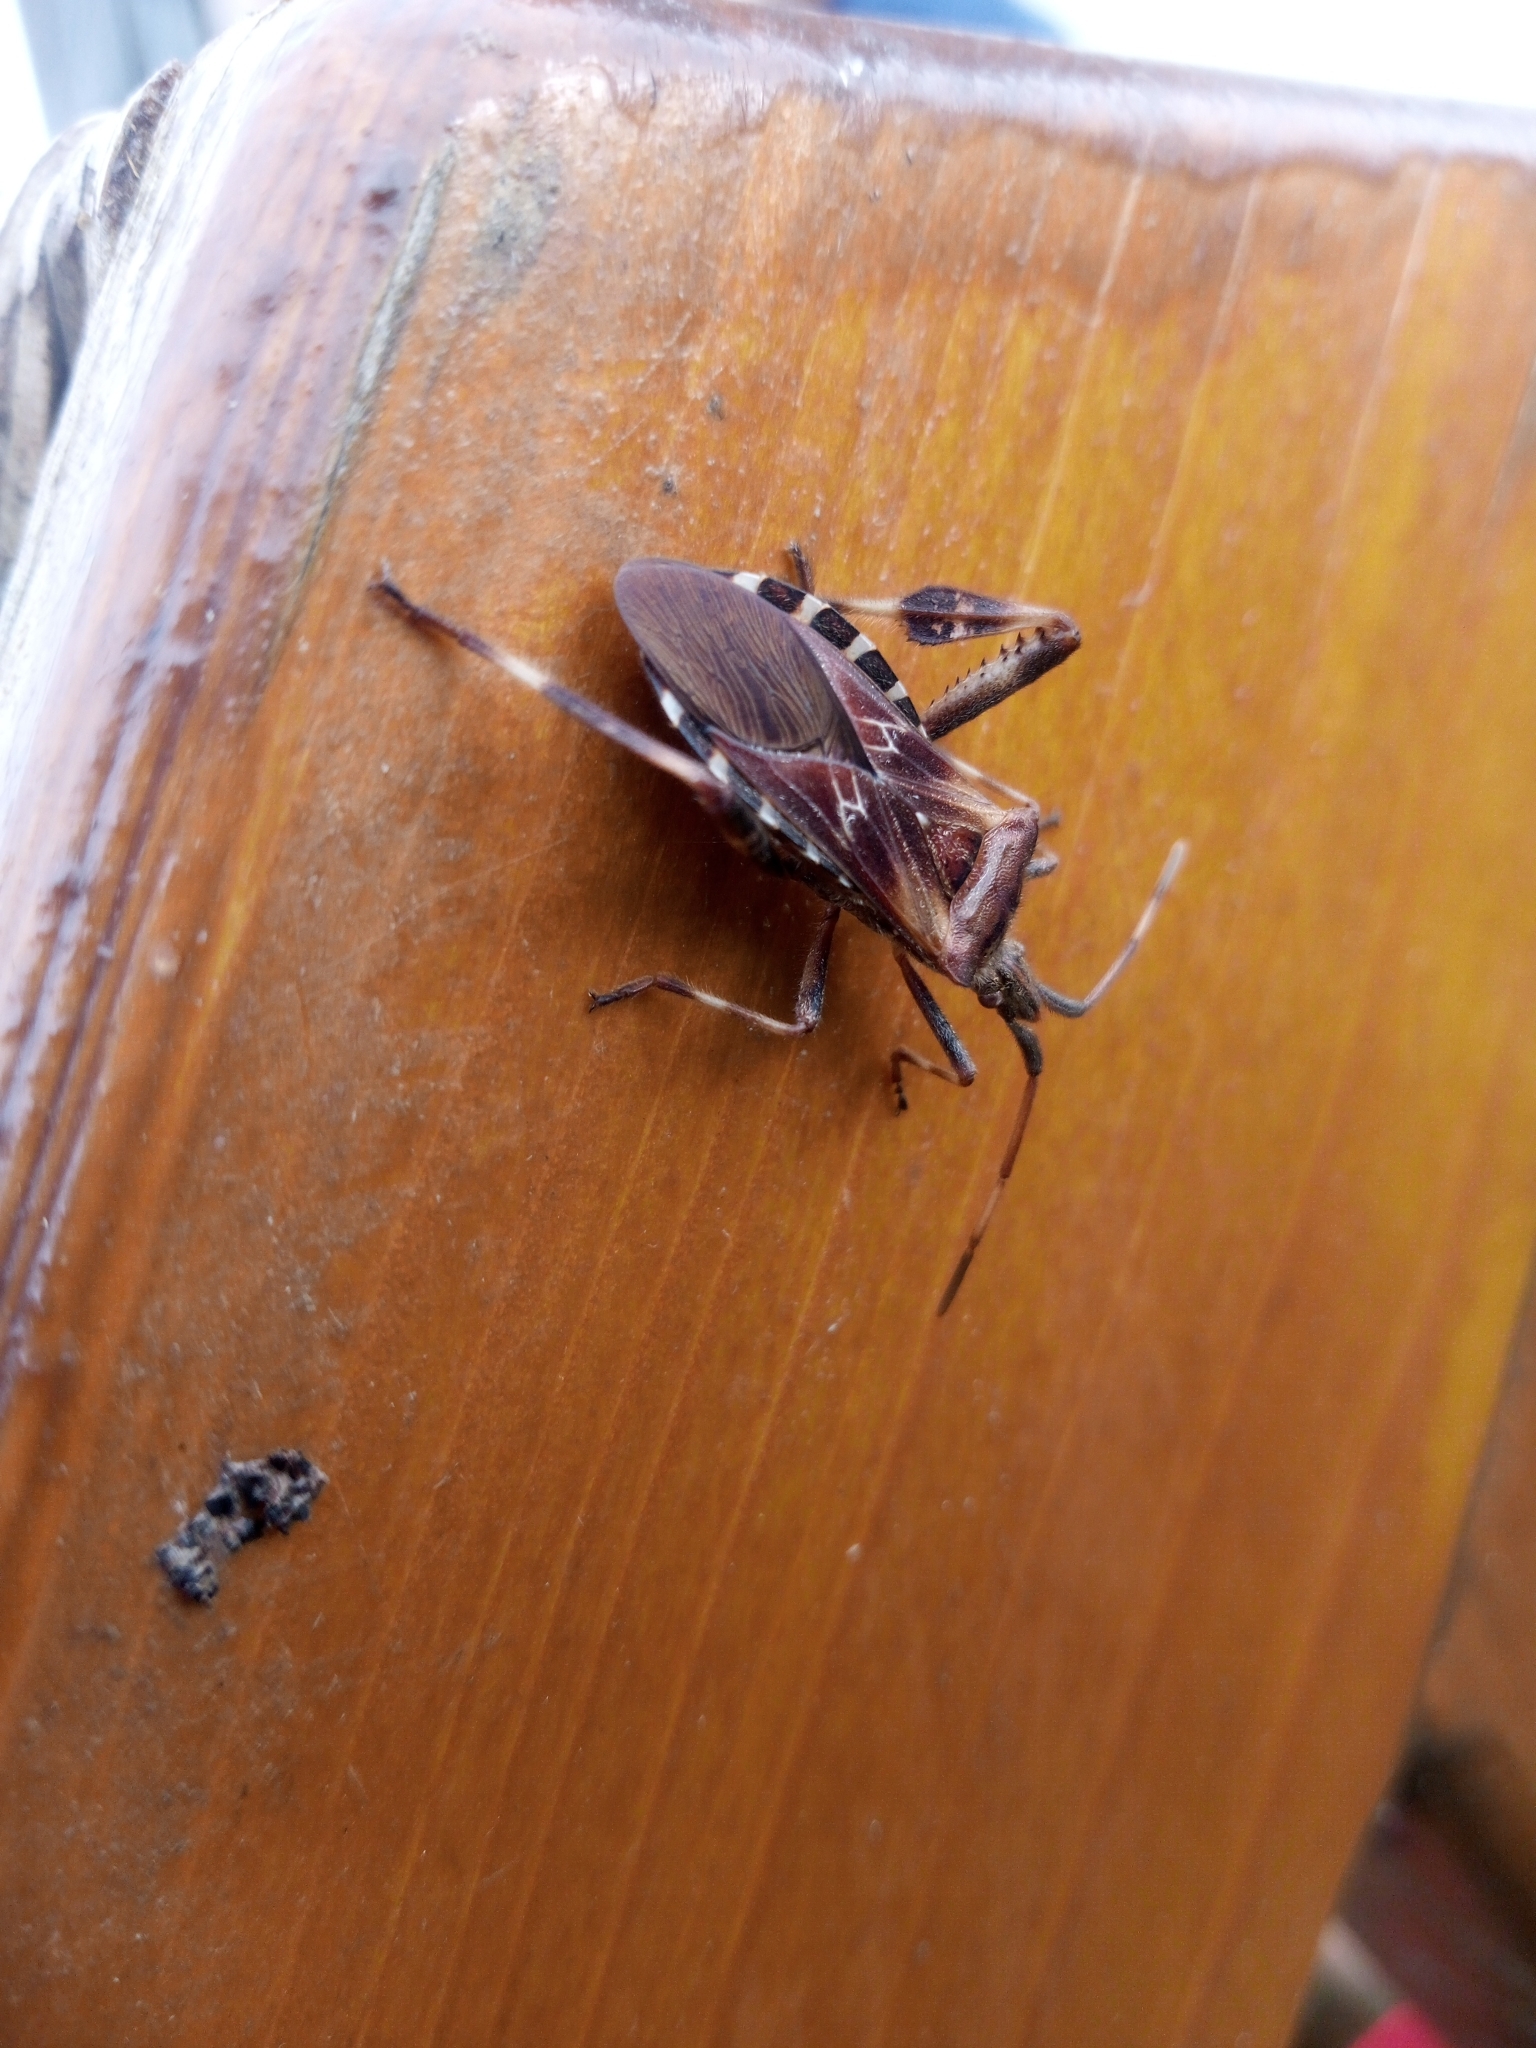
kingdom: Animalia
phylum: Arthropoda
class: Insecta
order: Hemiptera
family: Coreidae
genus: Leptoglossus
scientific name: Leptoglossus occidentalis
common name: Western conifer-seed bug
